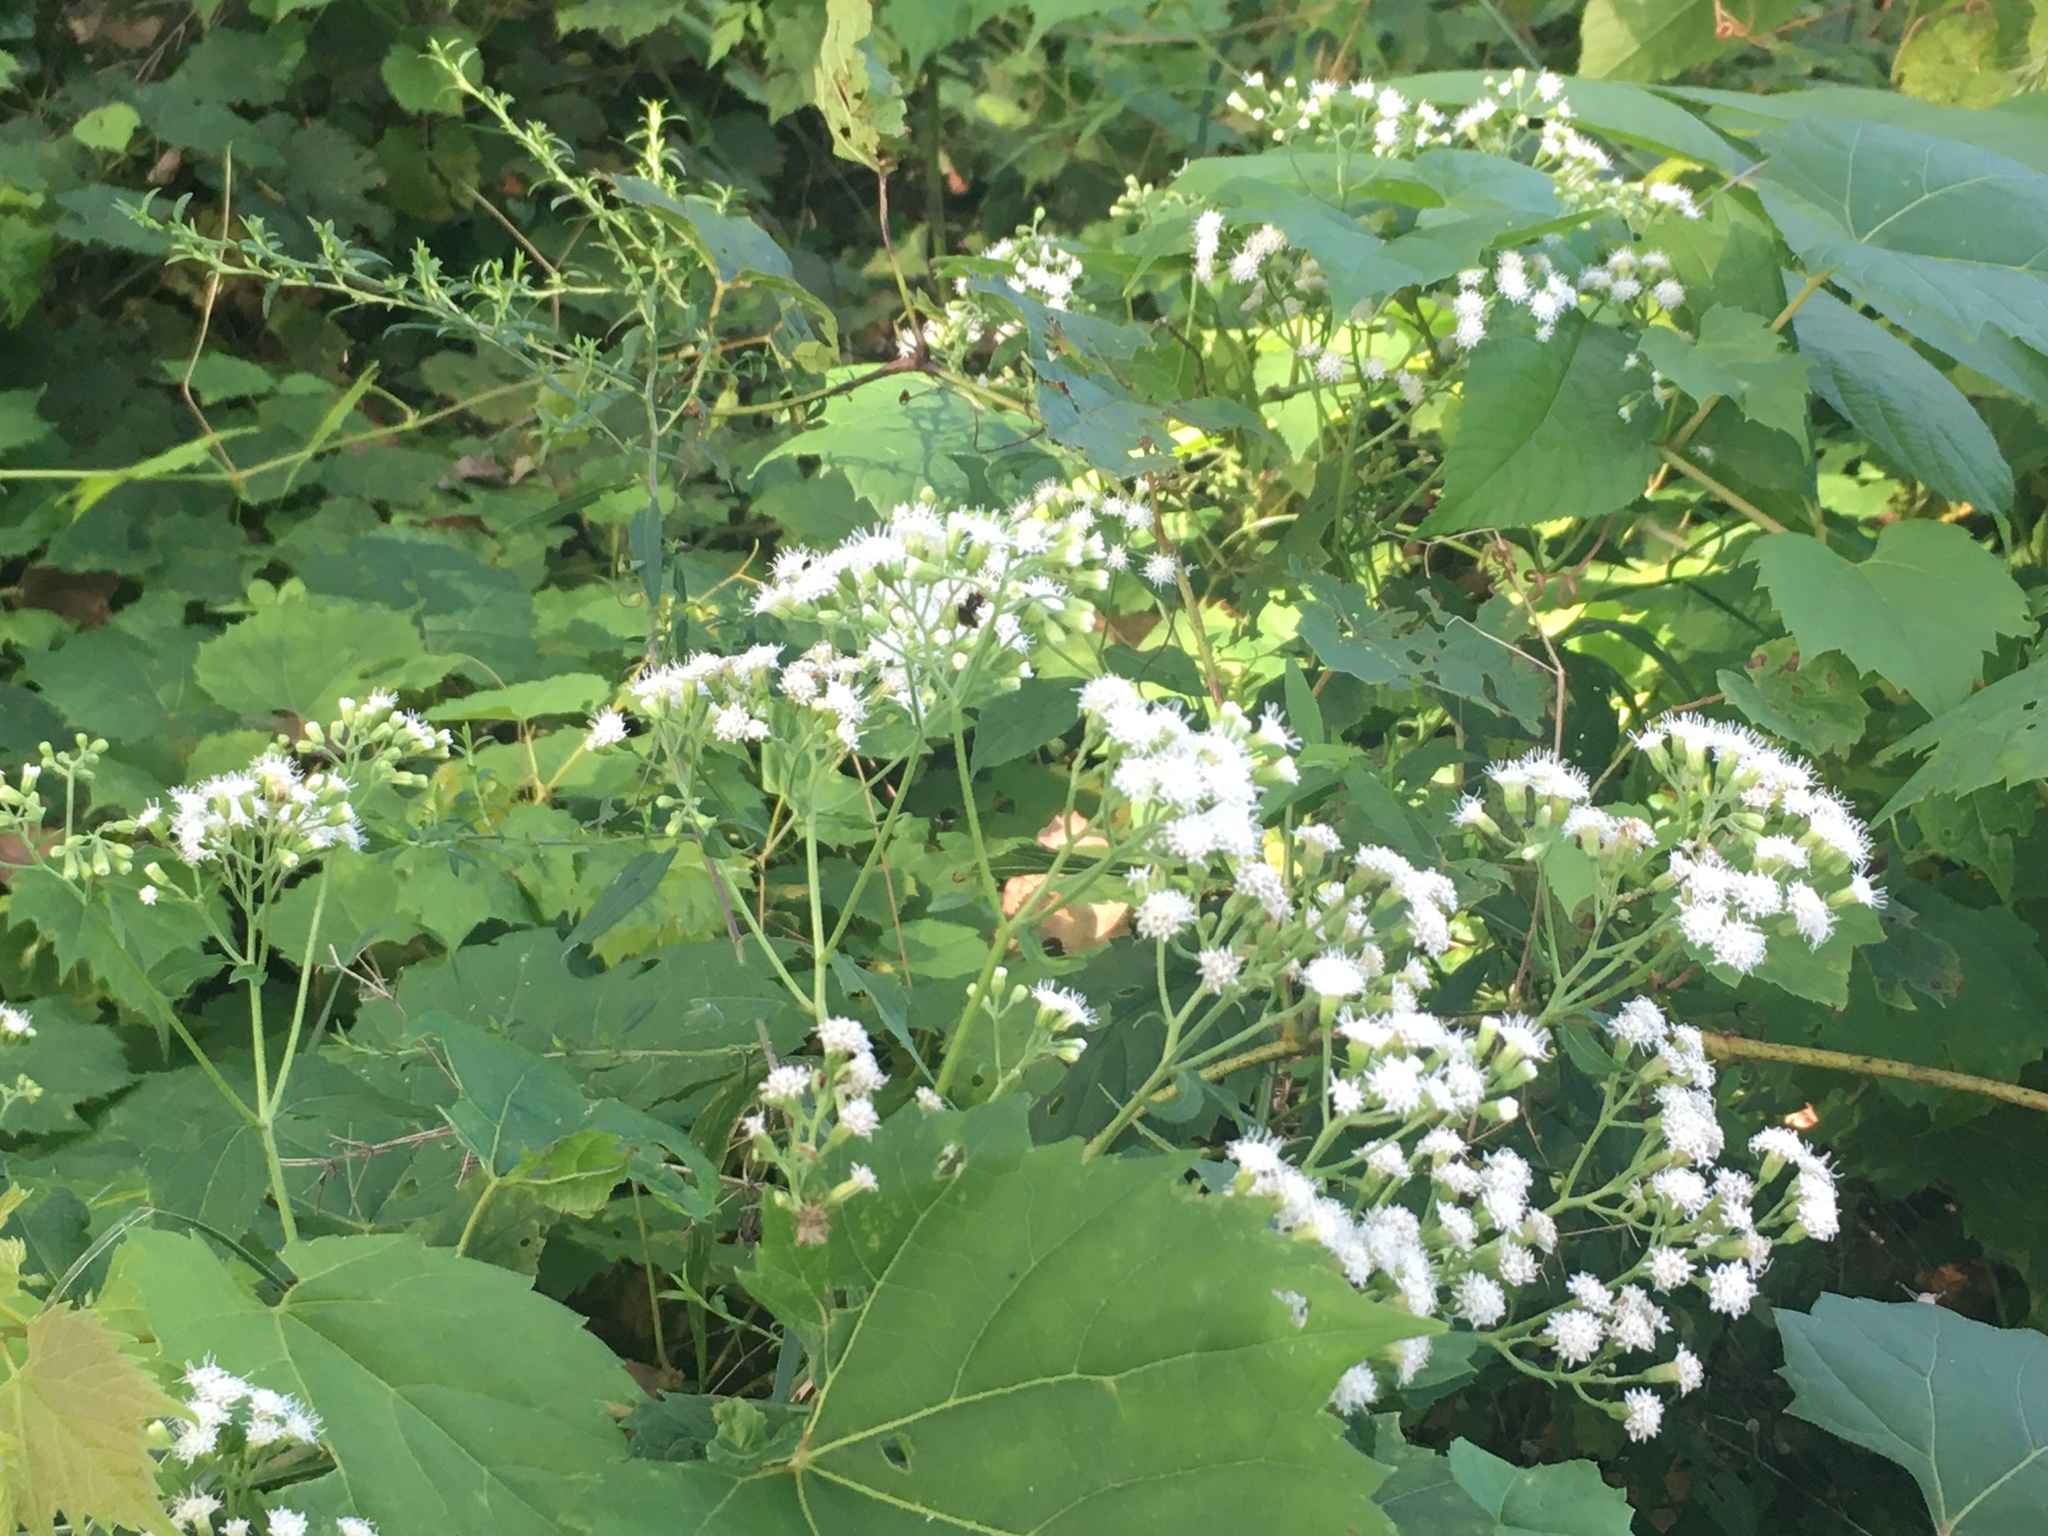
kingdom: Plantae
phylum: Tracheophyta
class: Magnoliopsida
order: Asterales
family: Asteraceae
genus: Ageratina
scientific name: Ageratina altissima
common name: White snakeroot
